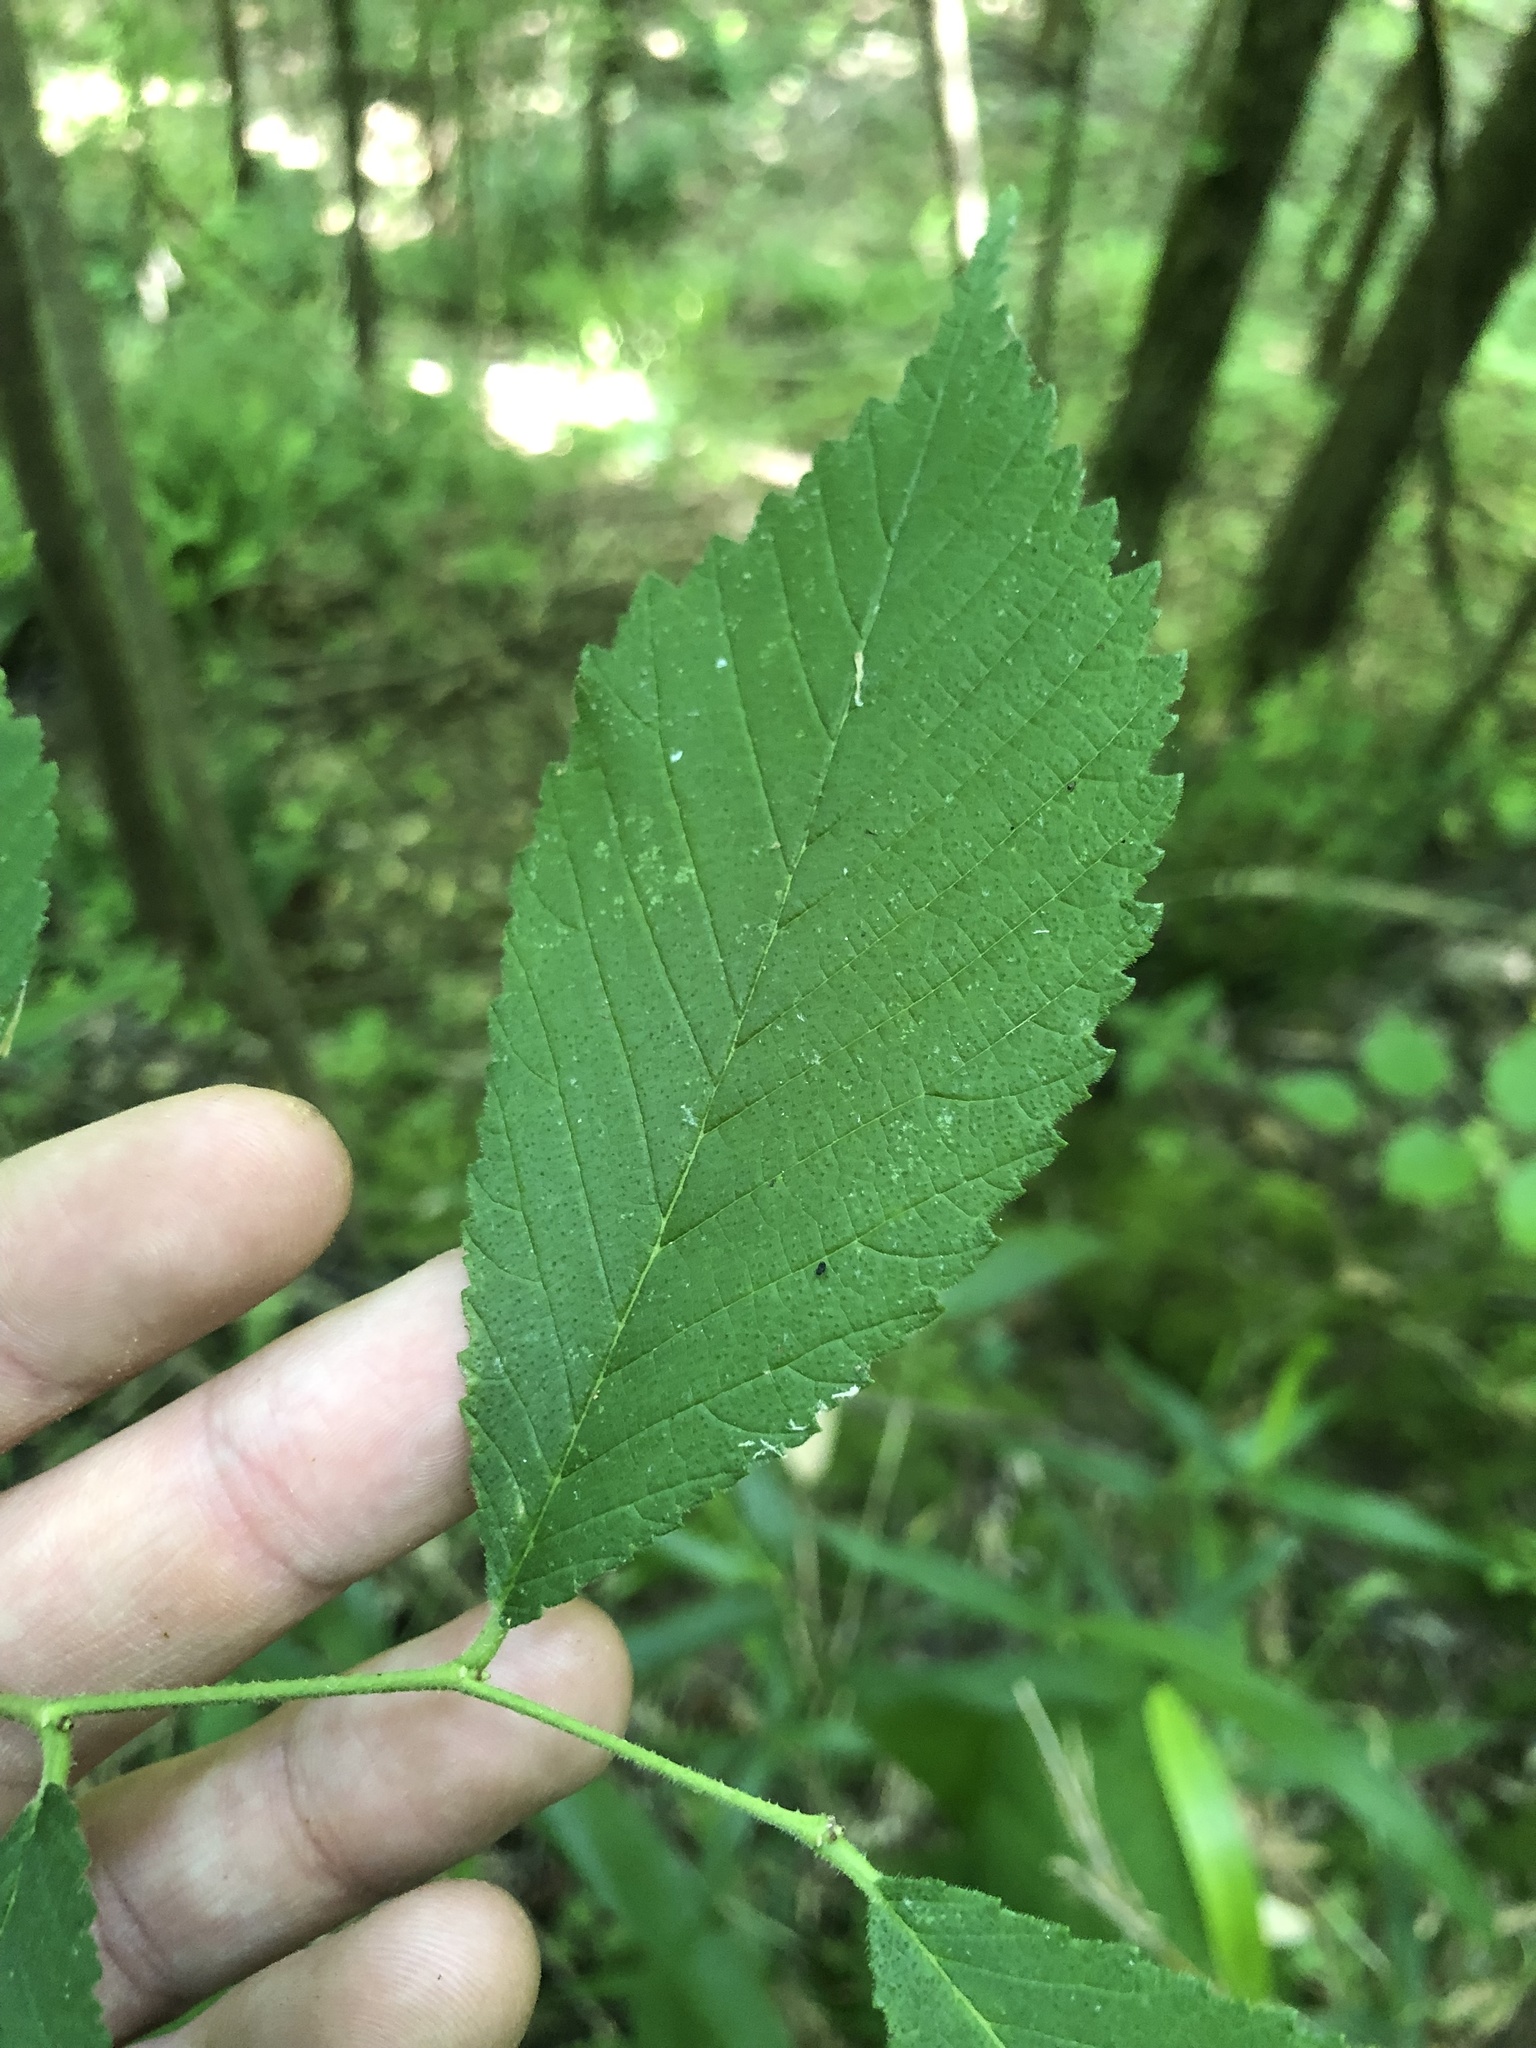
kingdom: Plantae
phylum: Tracheophyta
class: Magnoliopsida
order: Rosales
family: Ulmaceae
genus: Ulmus
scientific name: Ulmus rubra
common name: Slippery elm
